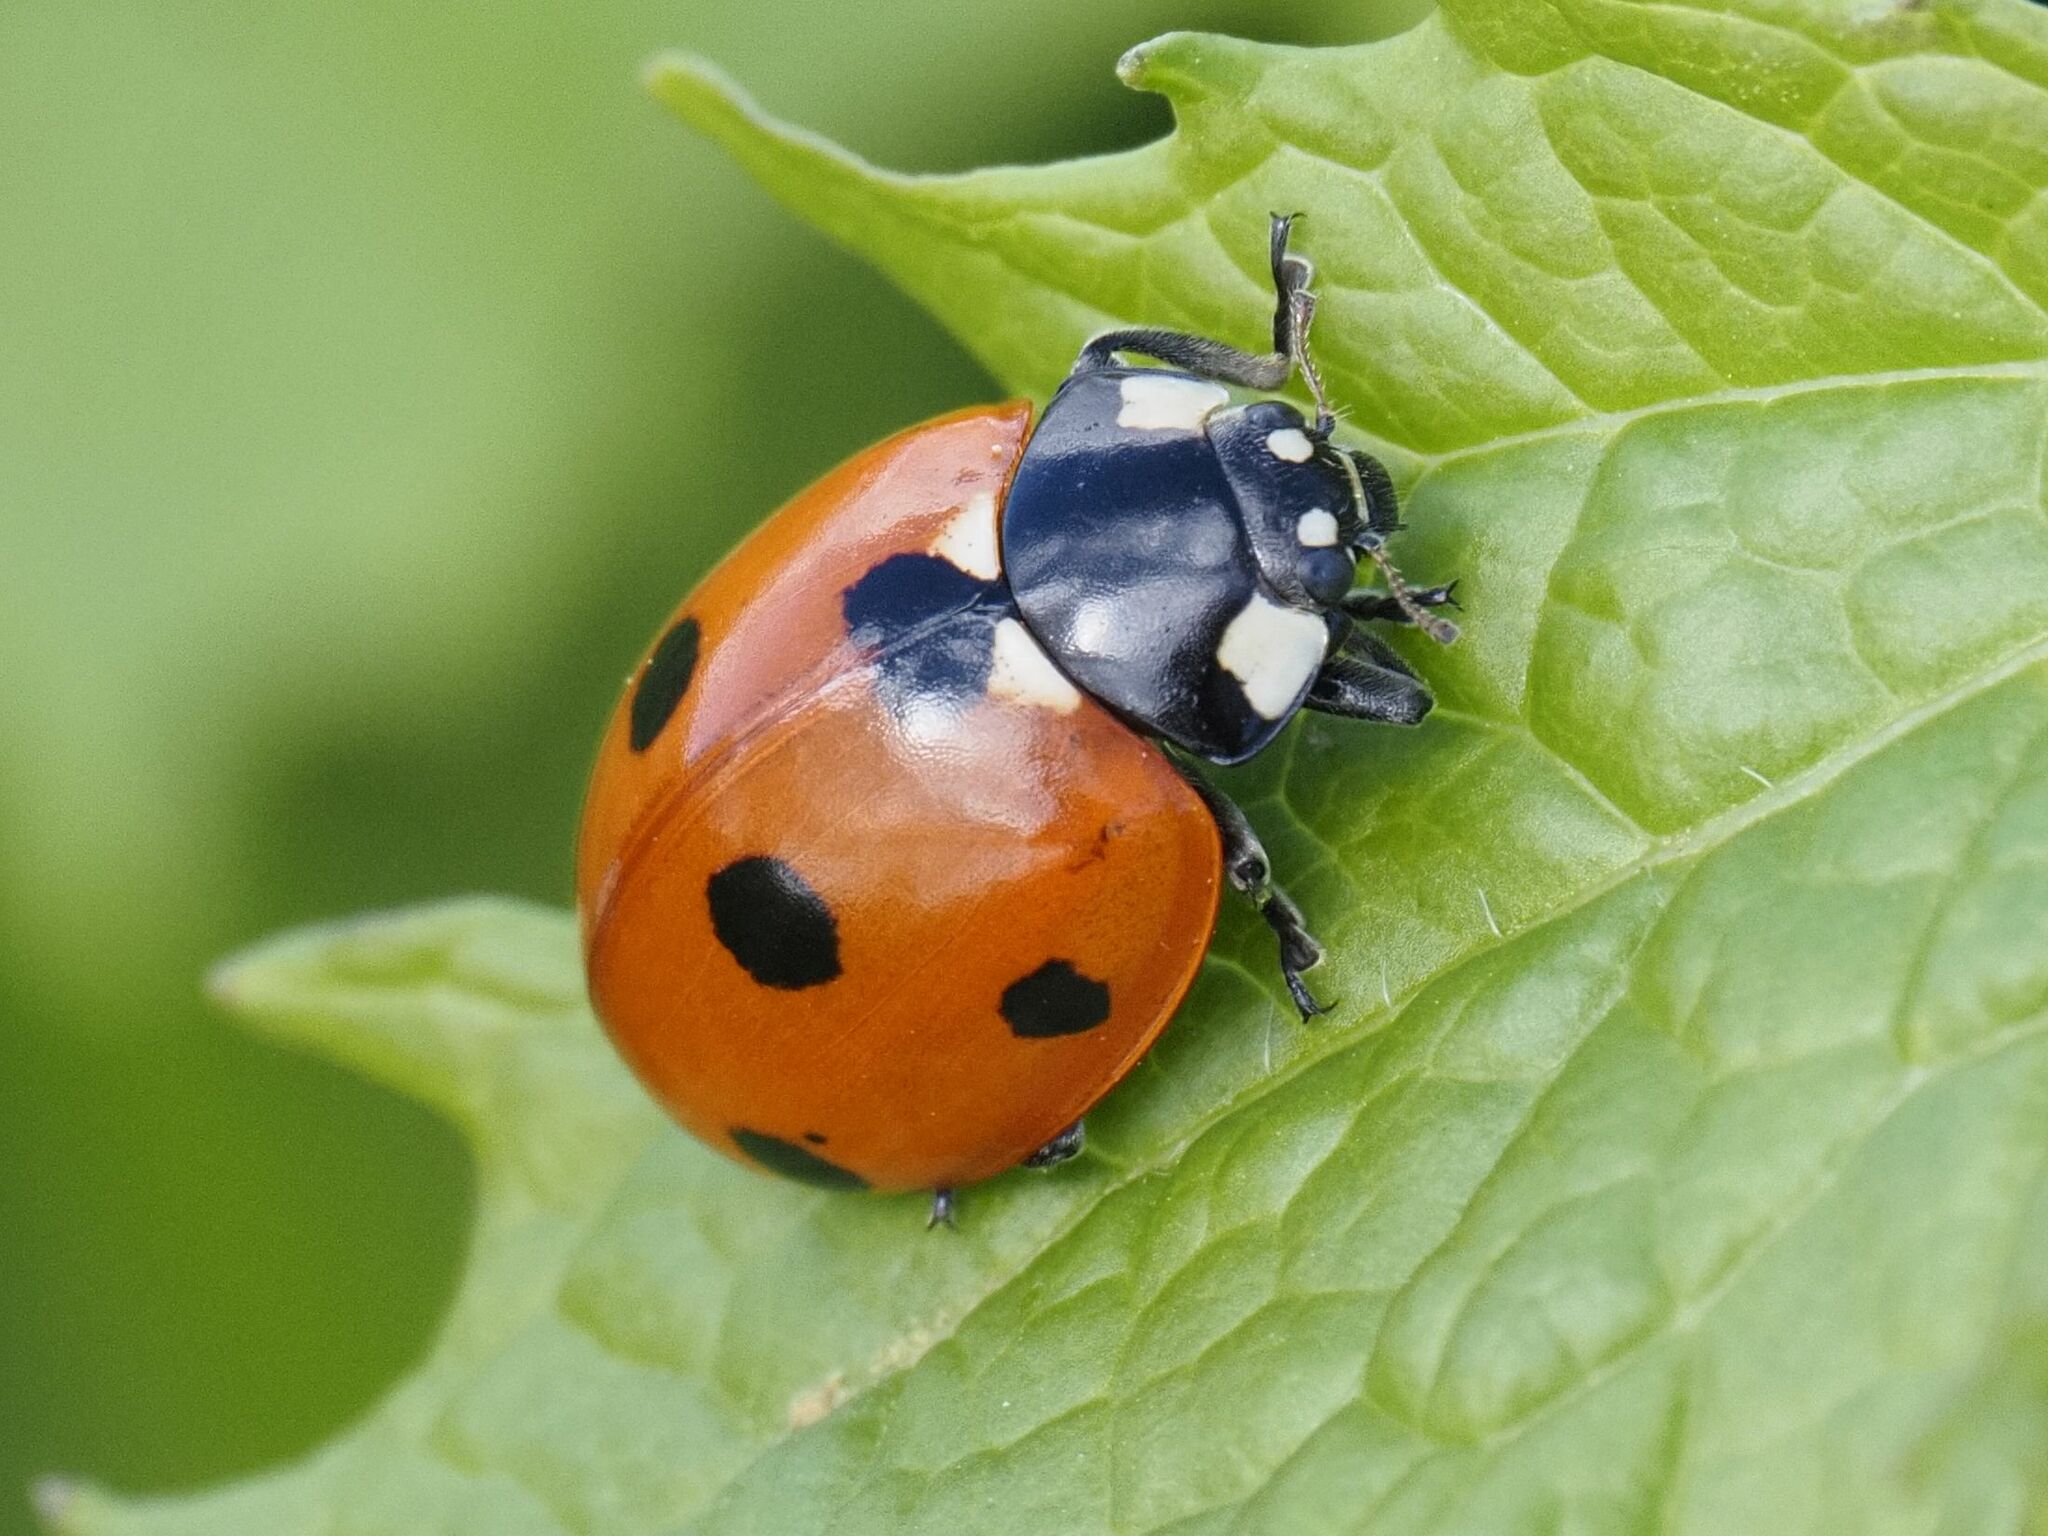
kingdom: Animalia
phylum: Arthropoda
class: Insecta
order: Coleoptera
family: Coccinellidae
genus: Coccinella
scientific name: Coccinella septempunctata
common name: Sevenspotted lady beetle
